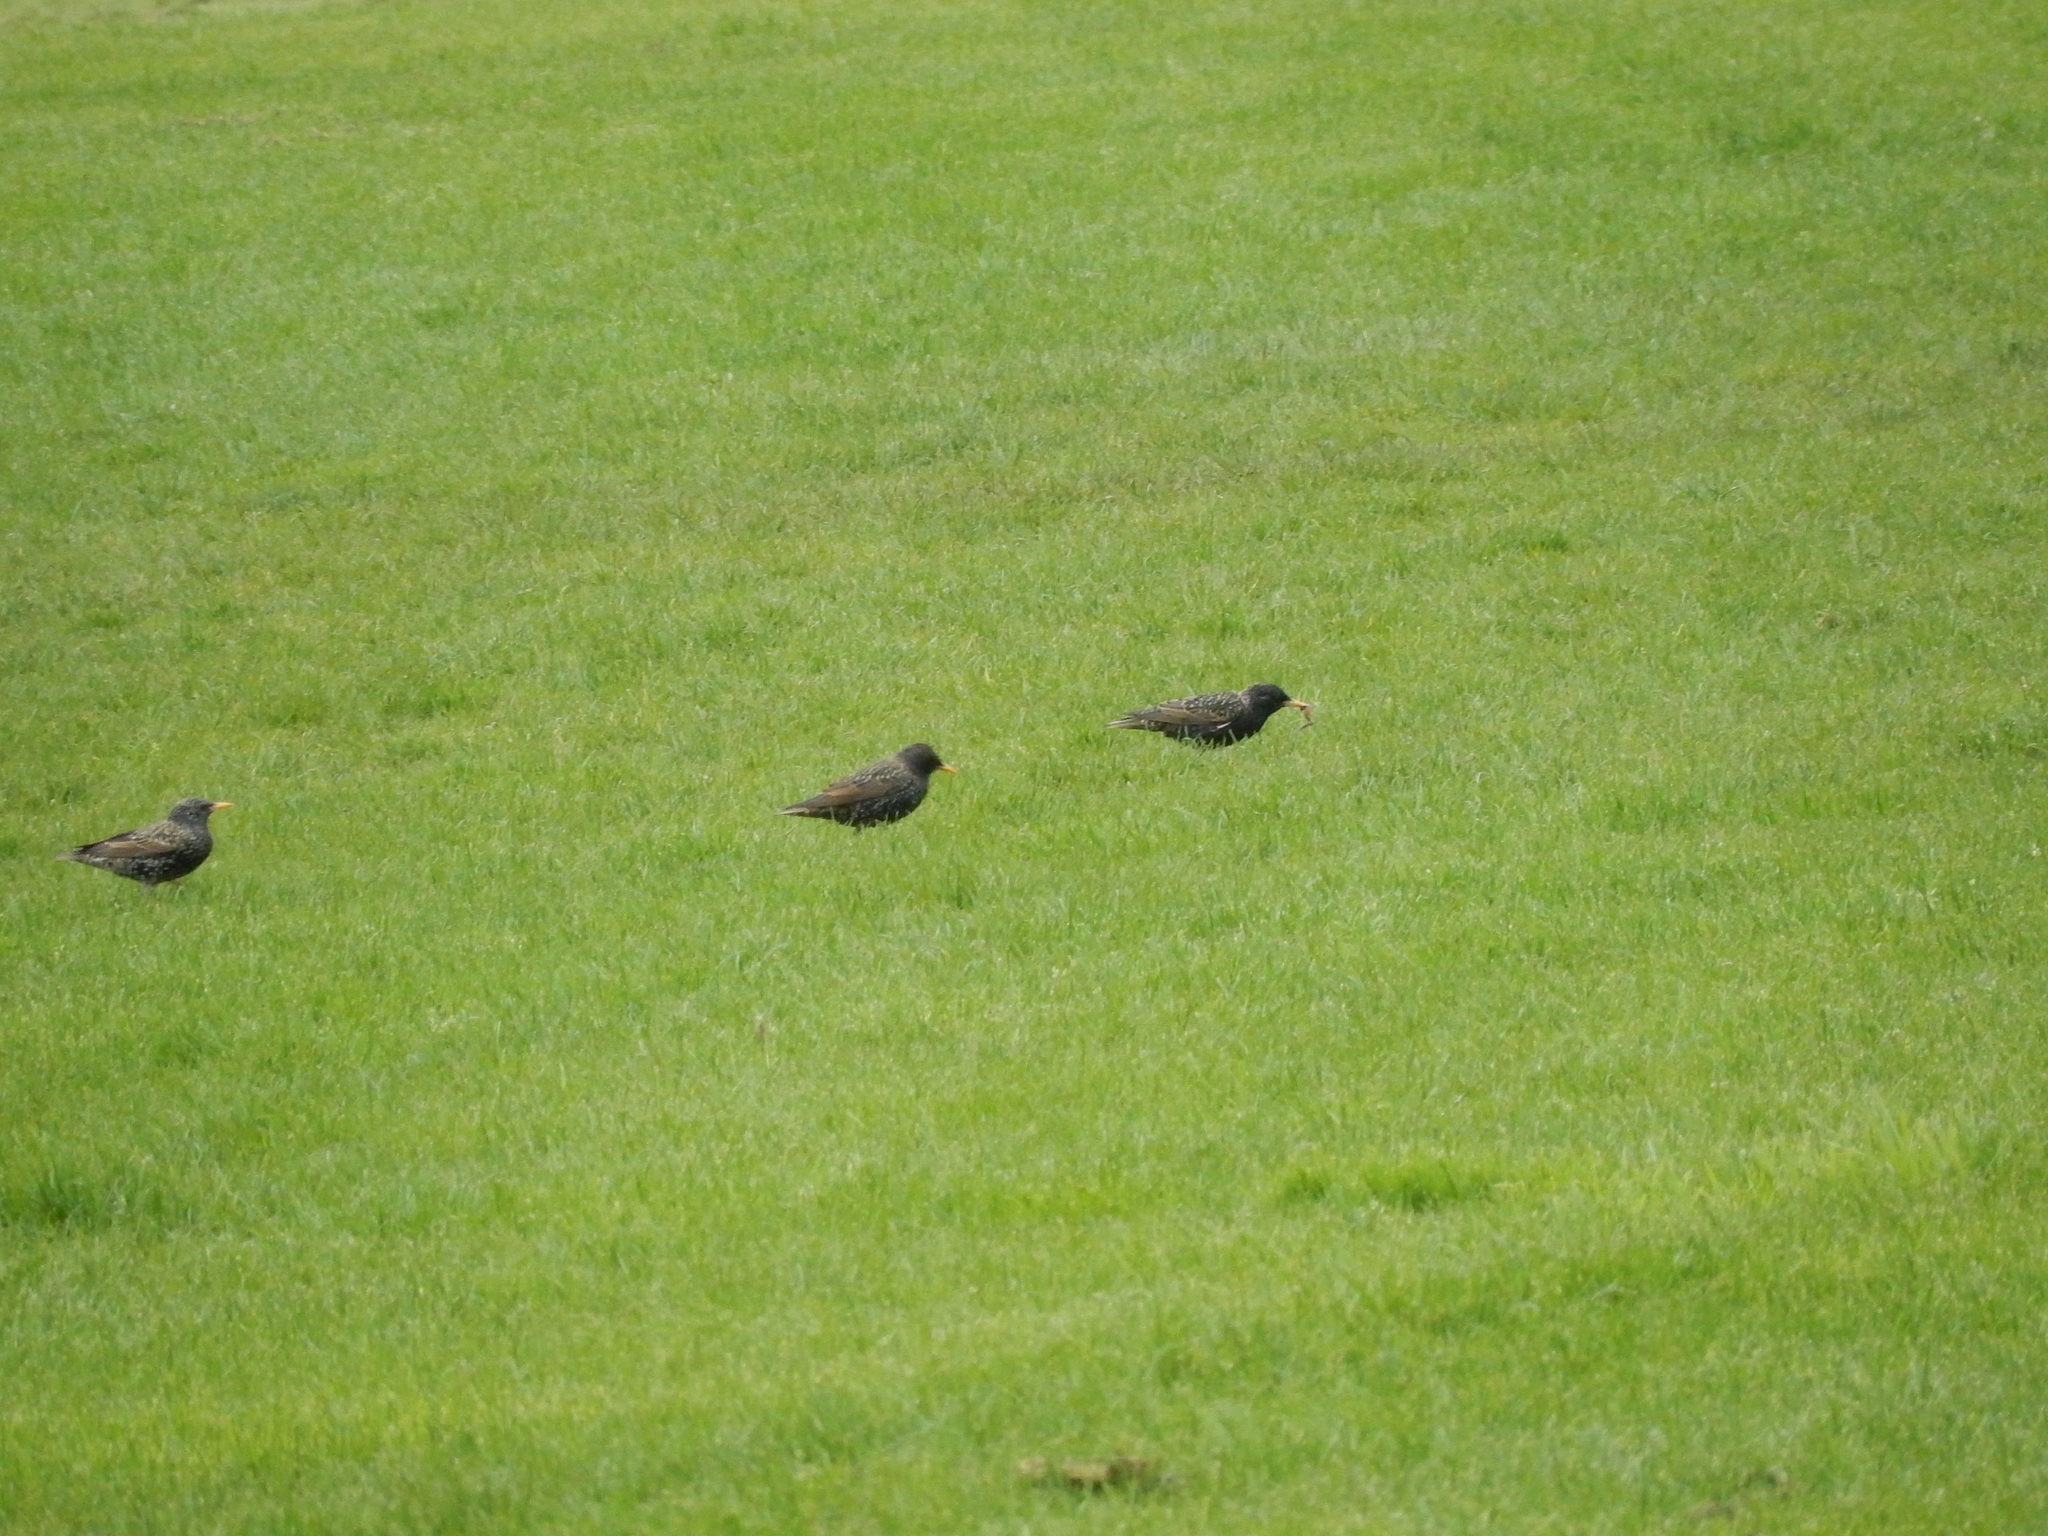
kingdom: Animalia
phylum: Chordata
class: Aves
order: Passeriformes
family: Sturnidae
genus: Sturnus
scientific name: Sturnus vulgaris
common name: Common starling
